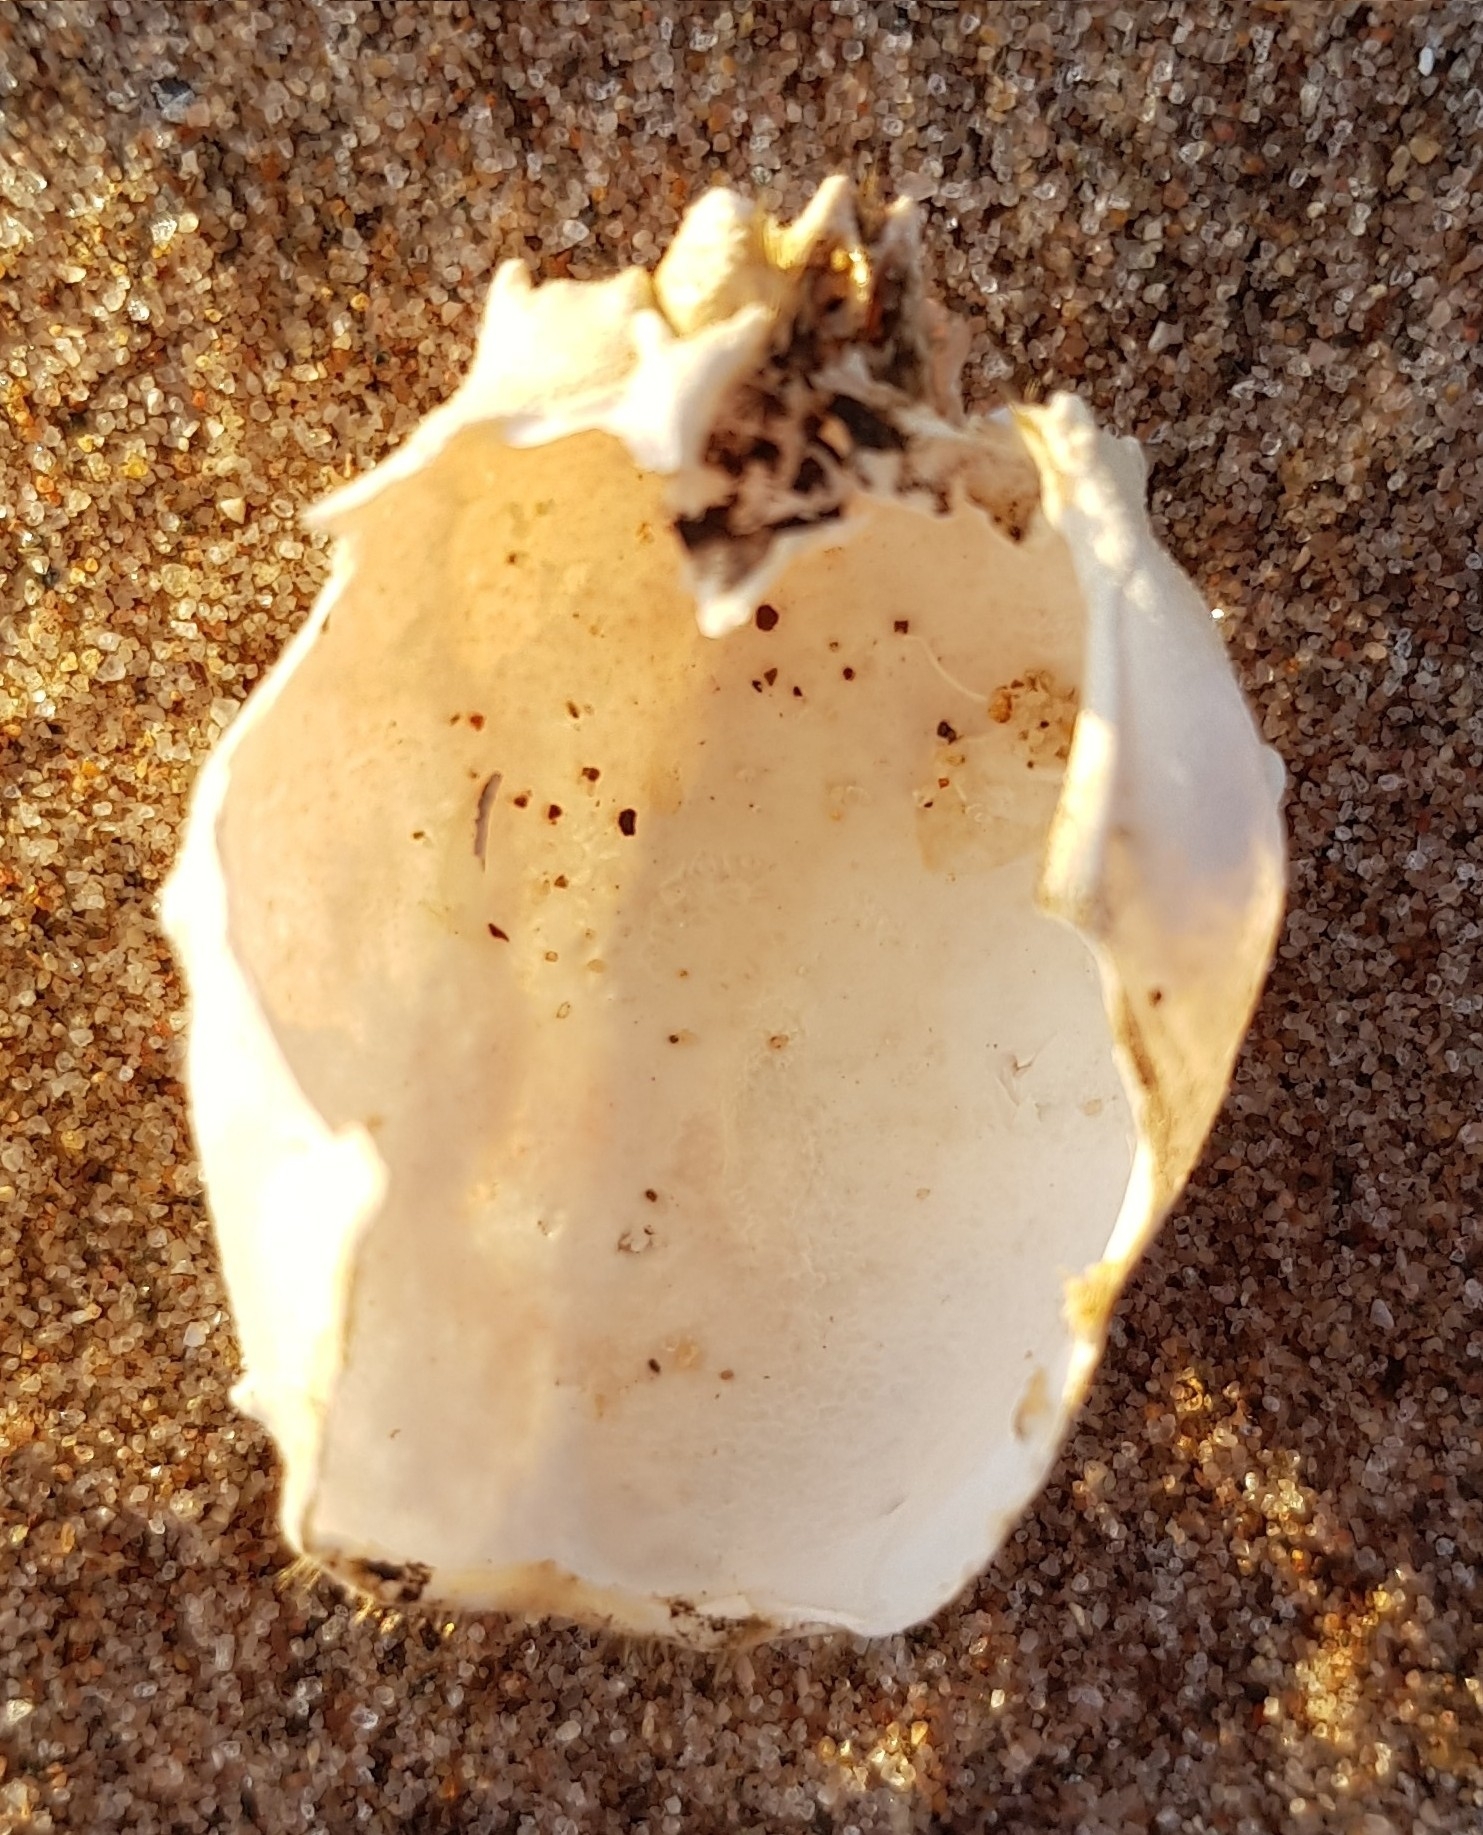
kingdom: Animalia
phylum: Arthropoda
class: Malacostraca
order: Decapoda
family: Corystidae
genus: Corystes
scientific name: Corystes cassivelaunus
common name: Masked crab
